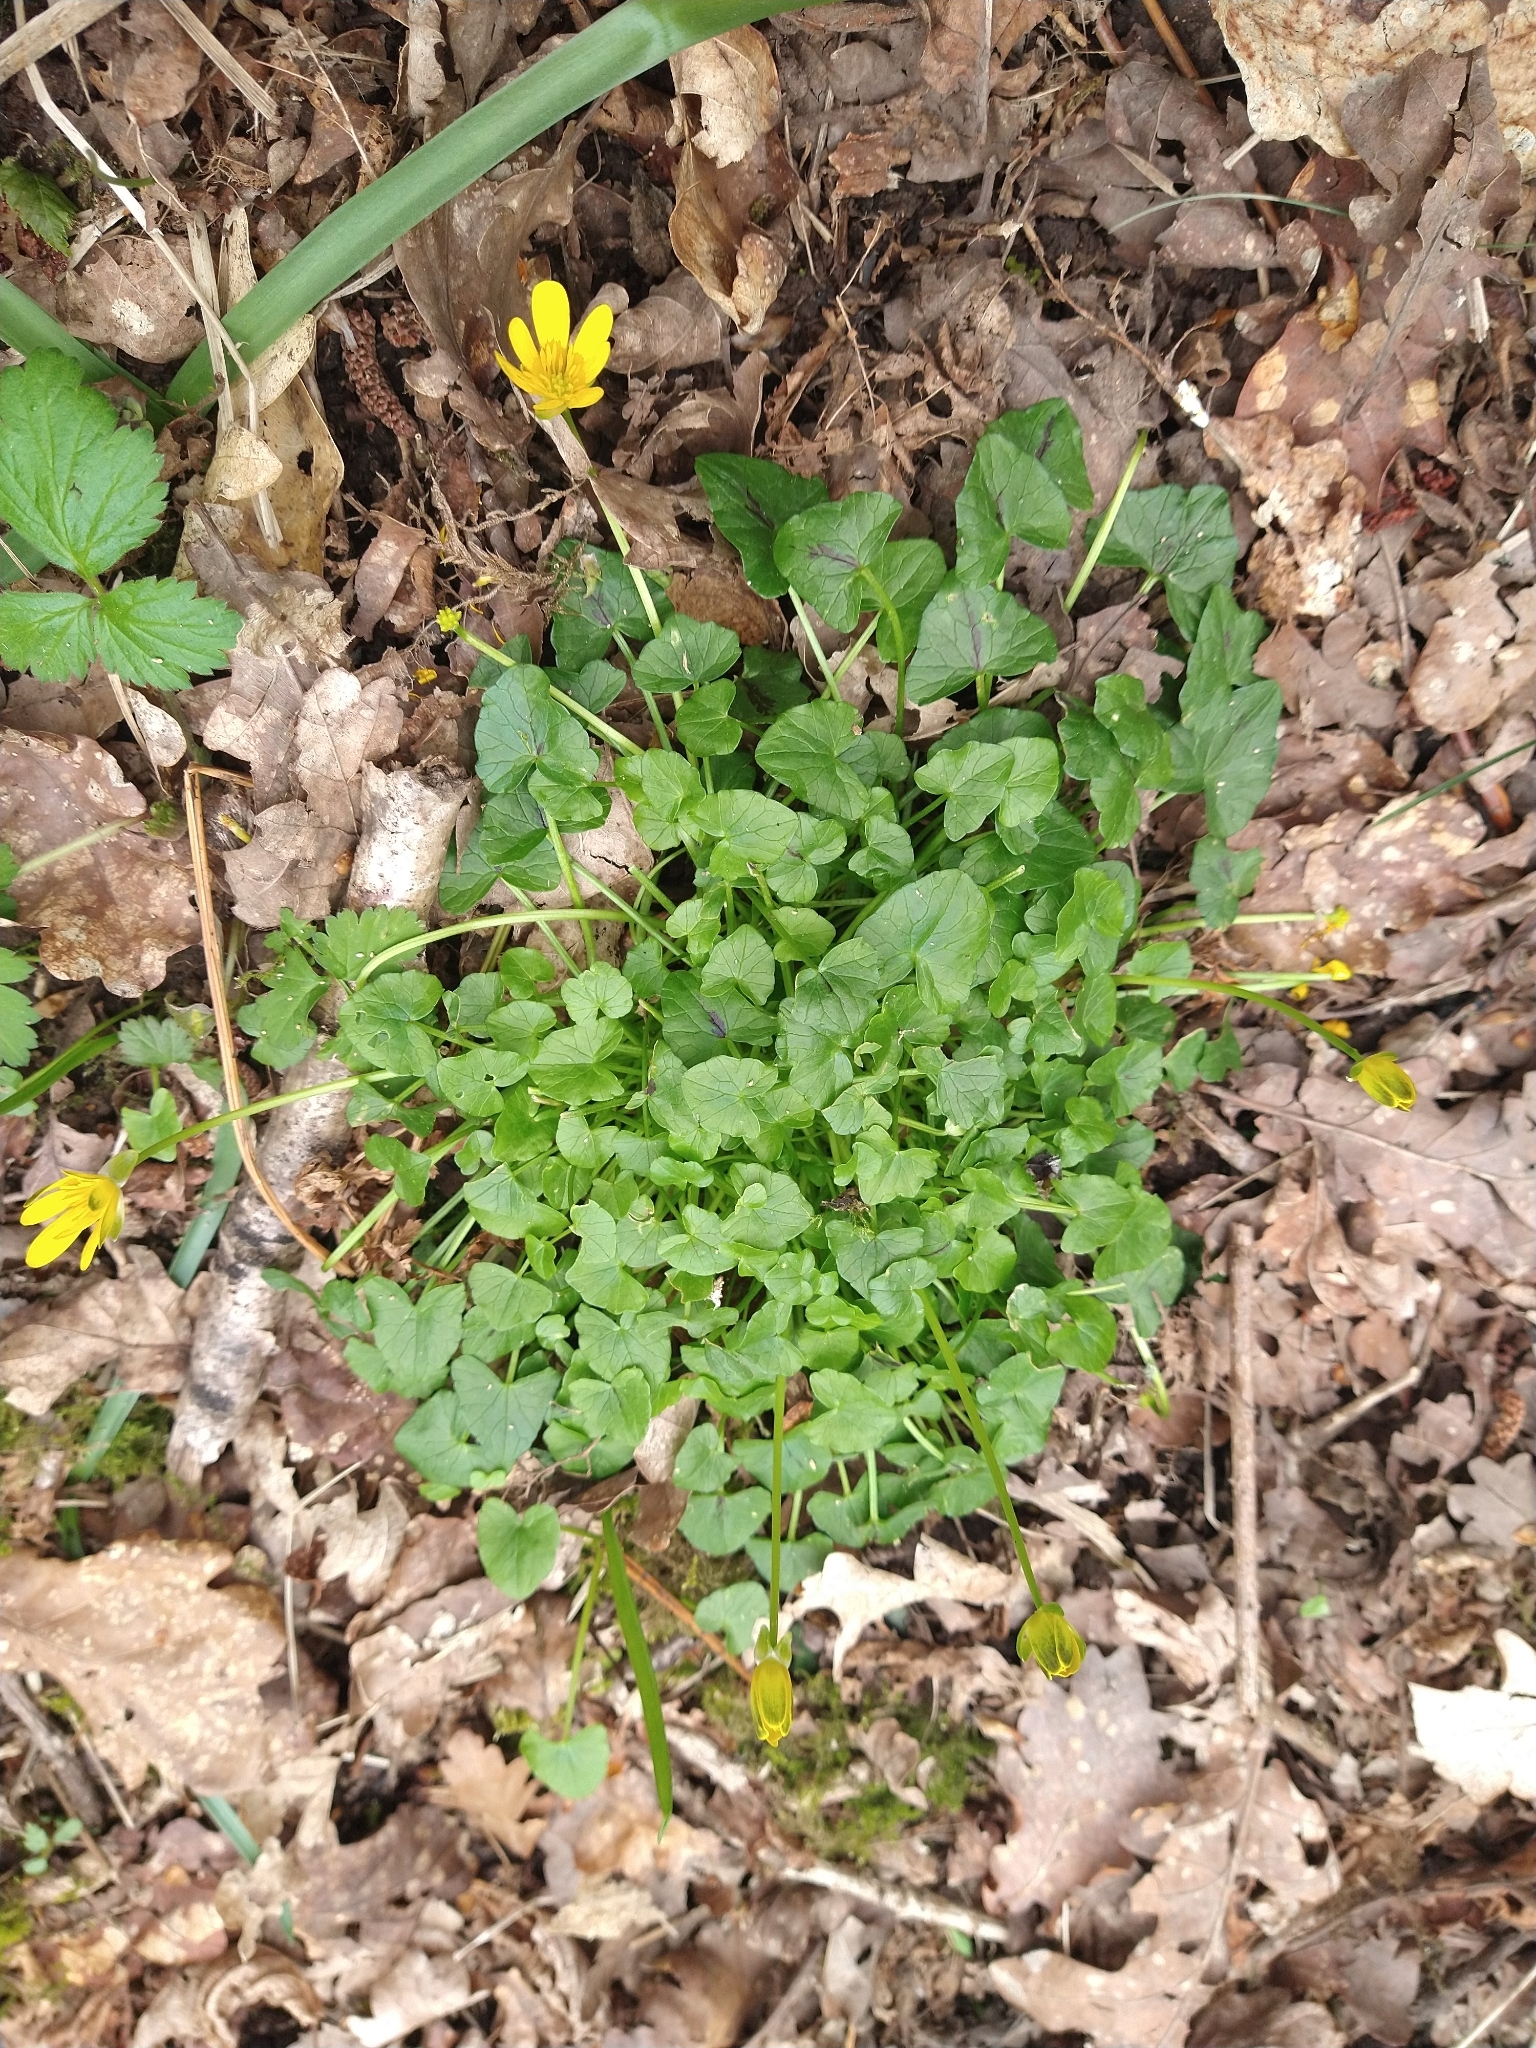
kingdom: Plantae
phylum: Tracheophyta
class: Magnoliopsida
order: Ranunculales
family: Ranunculaceae
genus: Ficaria
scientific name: Ficaria verna
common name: Lesser celandine
